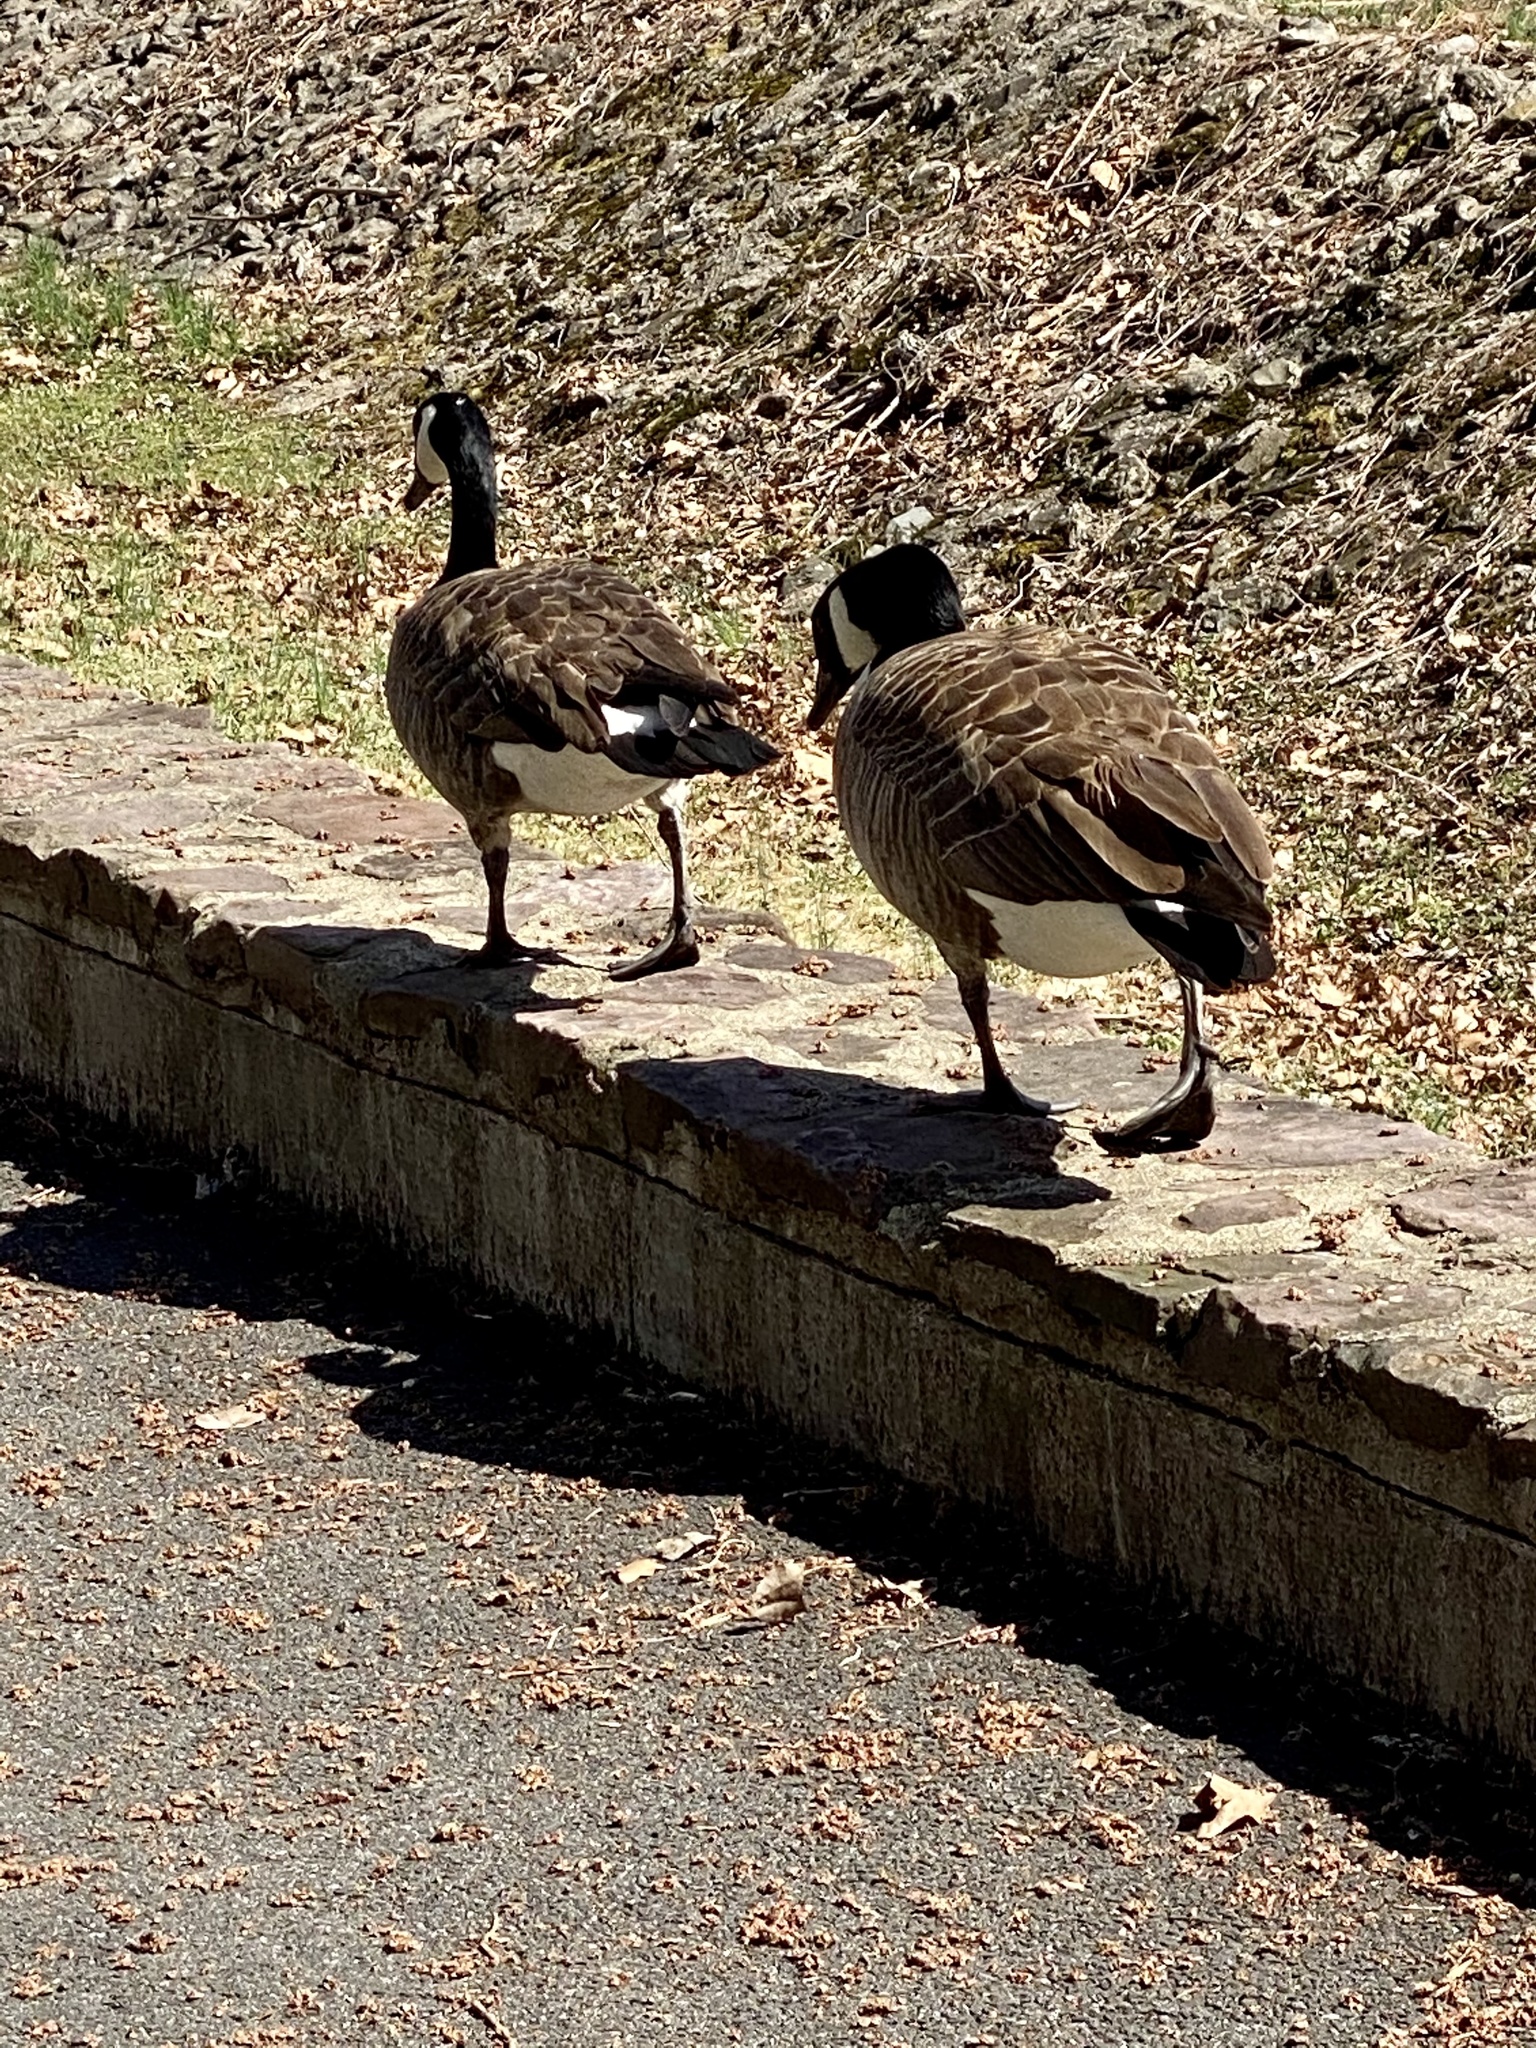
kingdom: Animalia
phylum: Chordata
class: Aves
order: Anseriformes
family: Anatidae
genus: Branta
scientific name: Branta canadensis
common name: Canada goose
